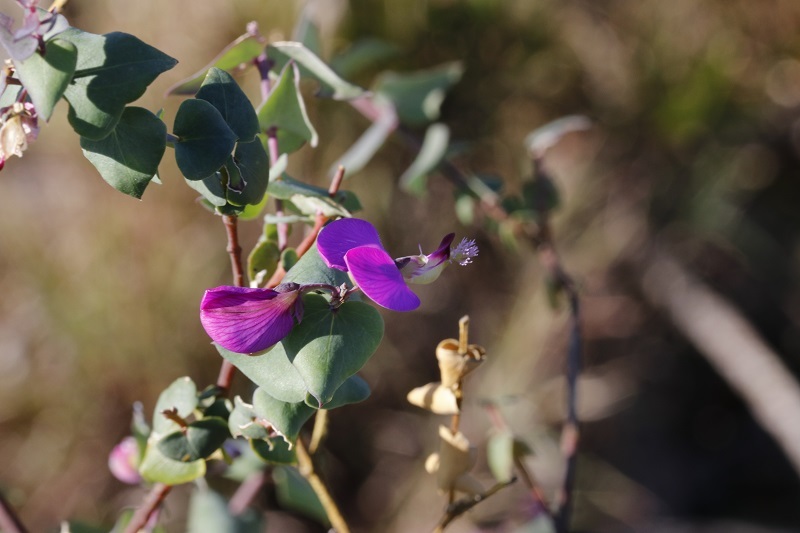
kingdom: Plantae
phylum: Tracheophyta
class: Magnoliopsida
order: Fabales
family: Polygalaceae
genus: Polygala
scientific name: Polygala fruticosa
